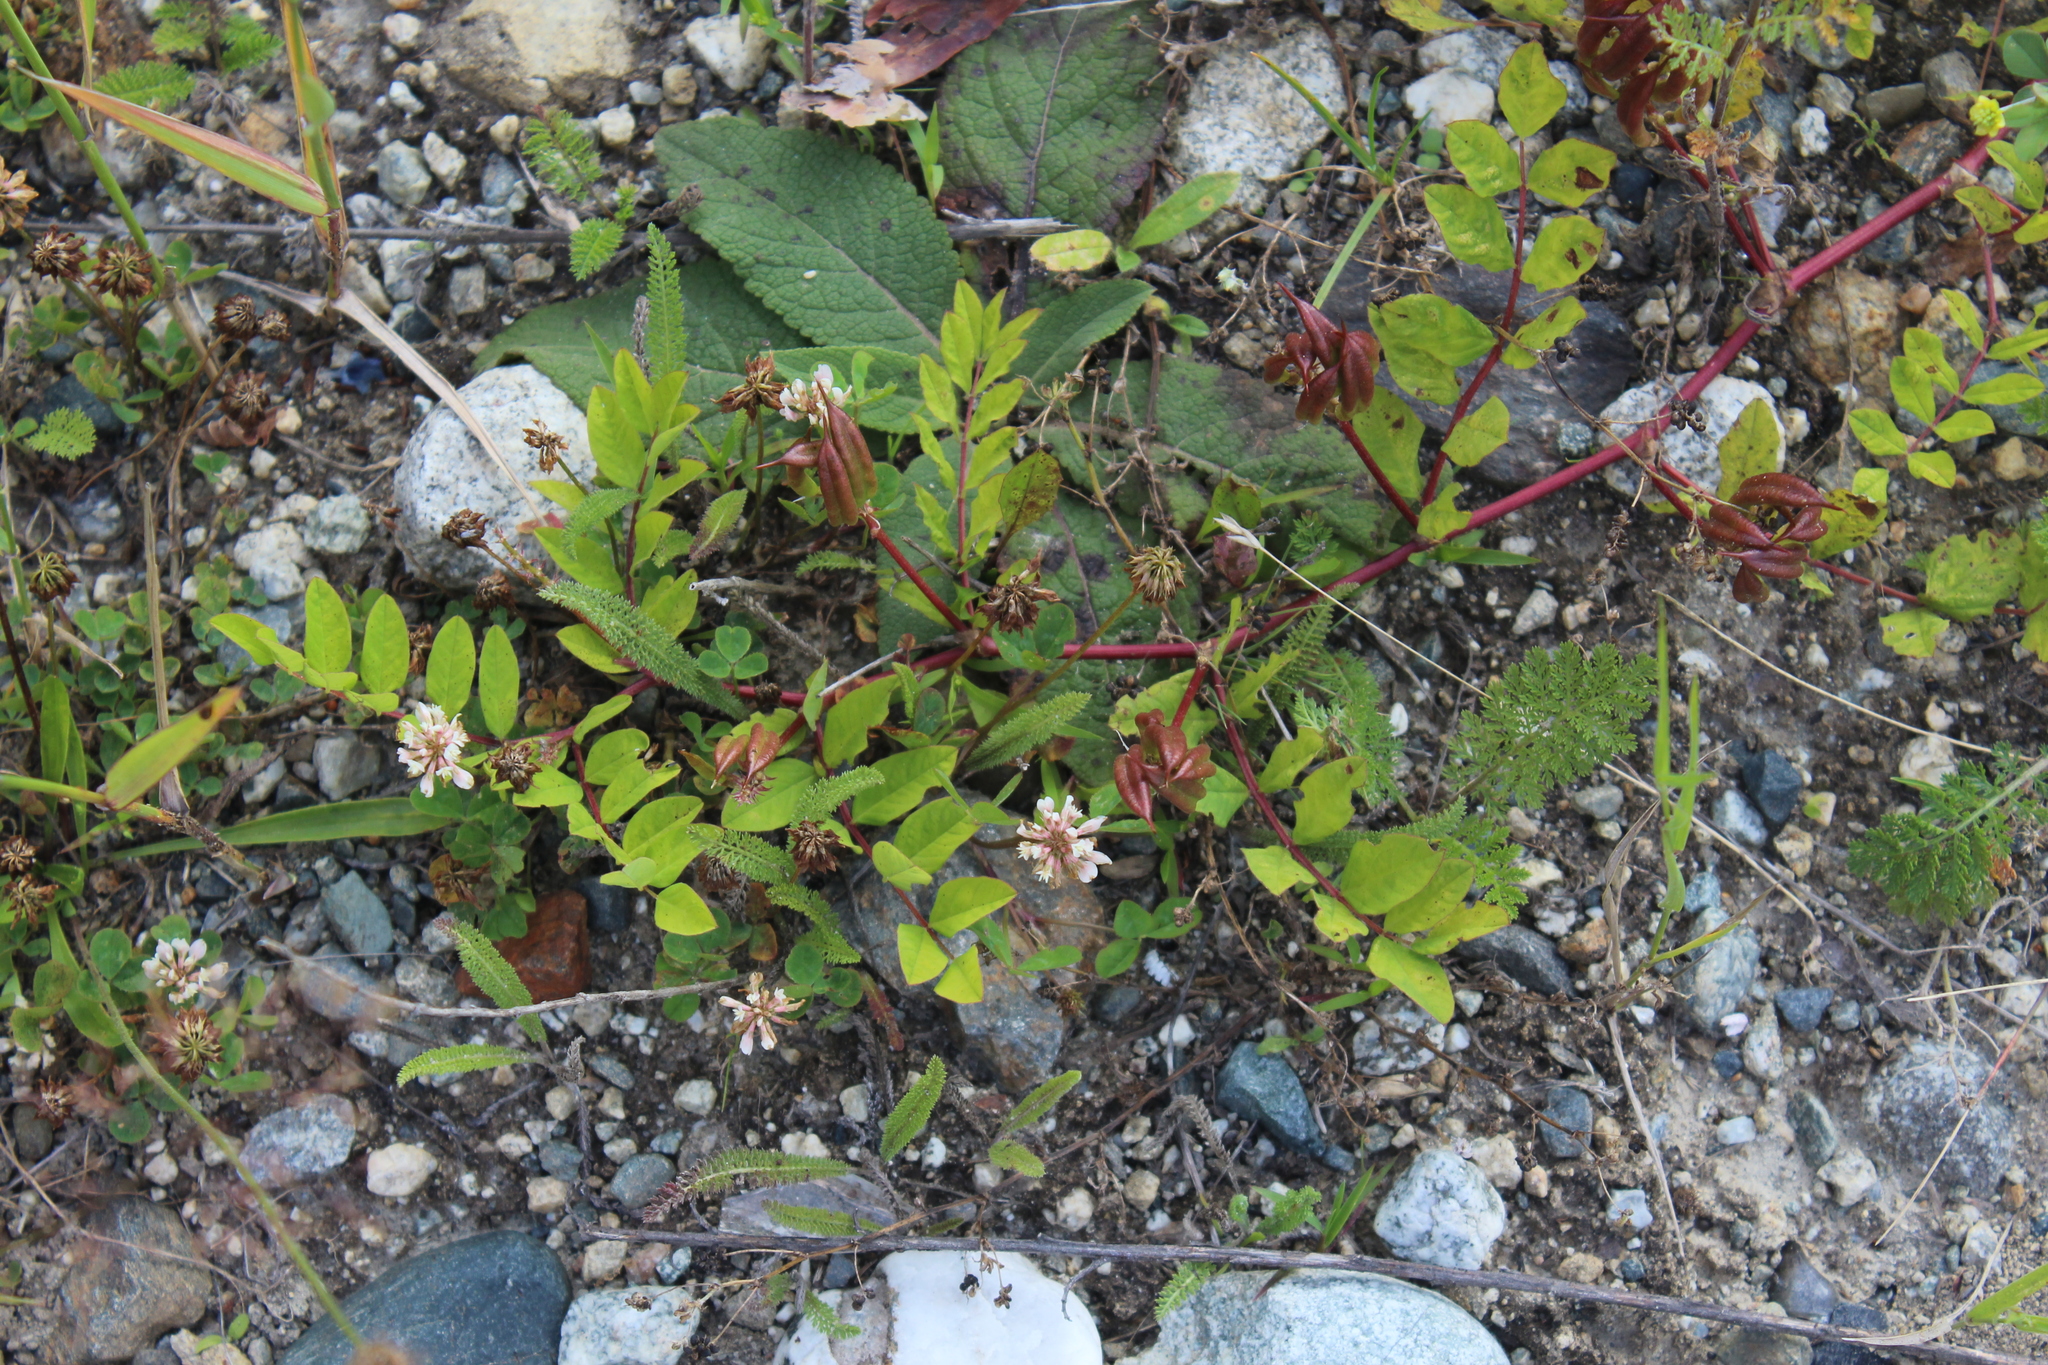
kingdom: Plantae
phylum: Tracheophyta
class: Magnoliopsida
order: Fabales
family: Fabaceae
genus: Astragalus
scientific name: Astragalus glycyphyllos
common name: Wild liquorice
